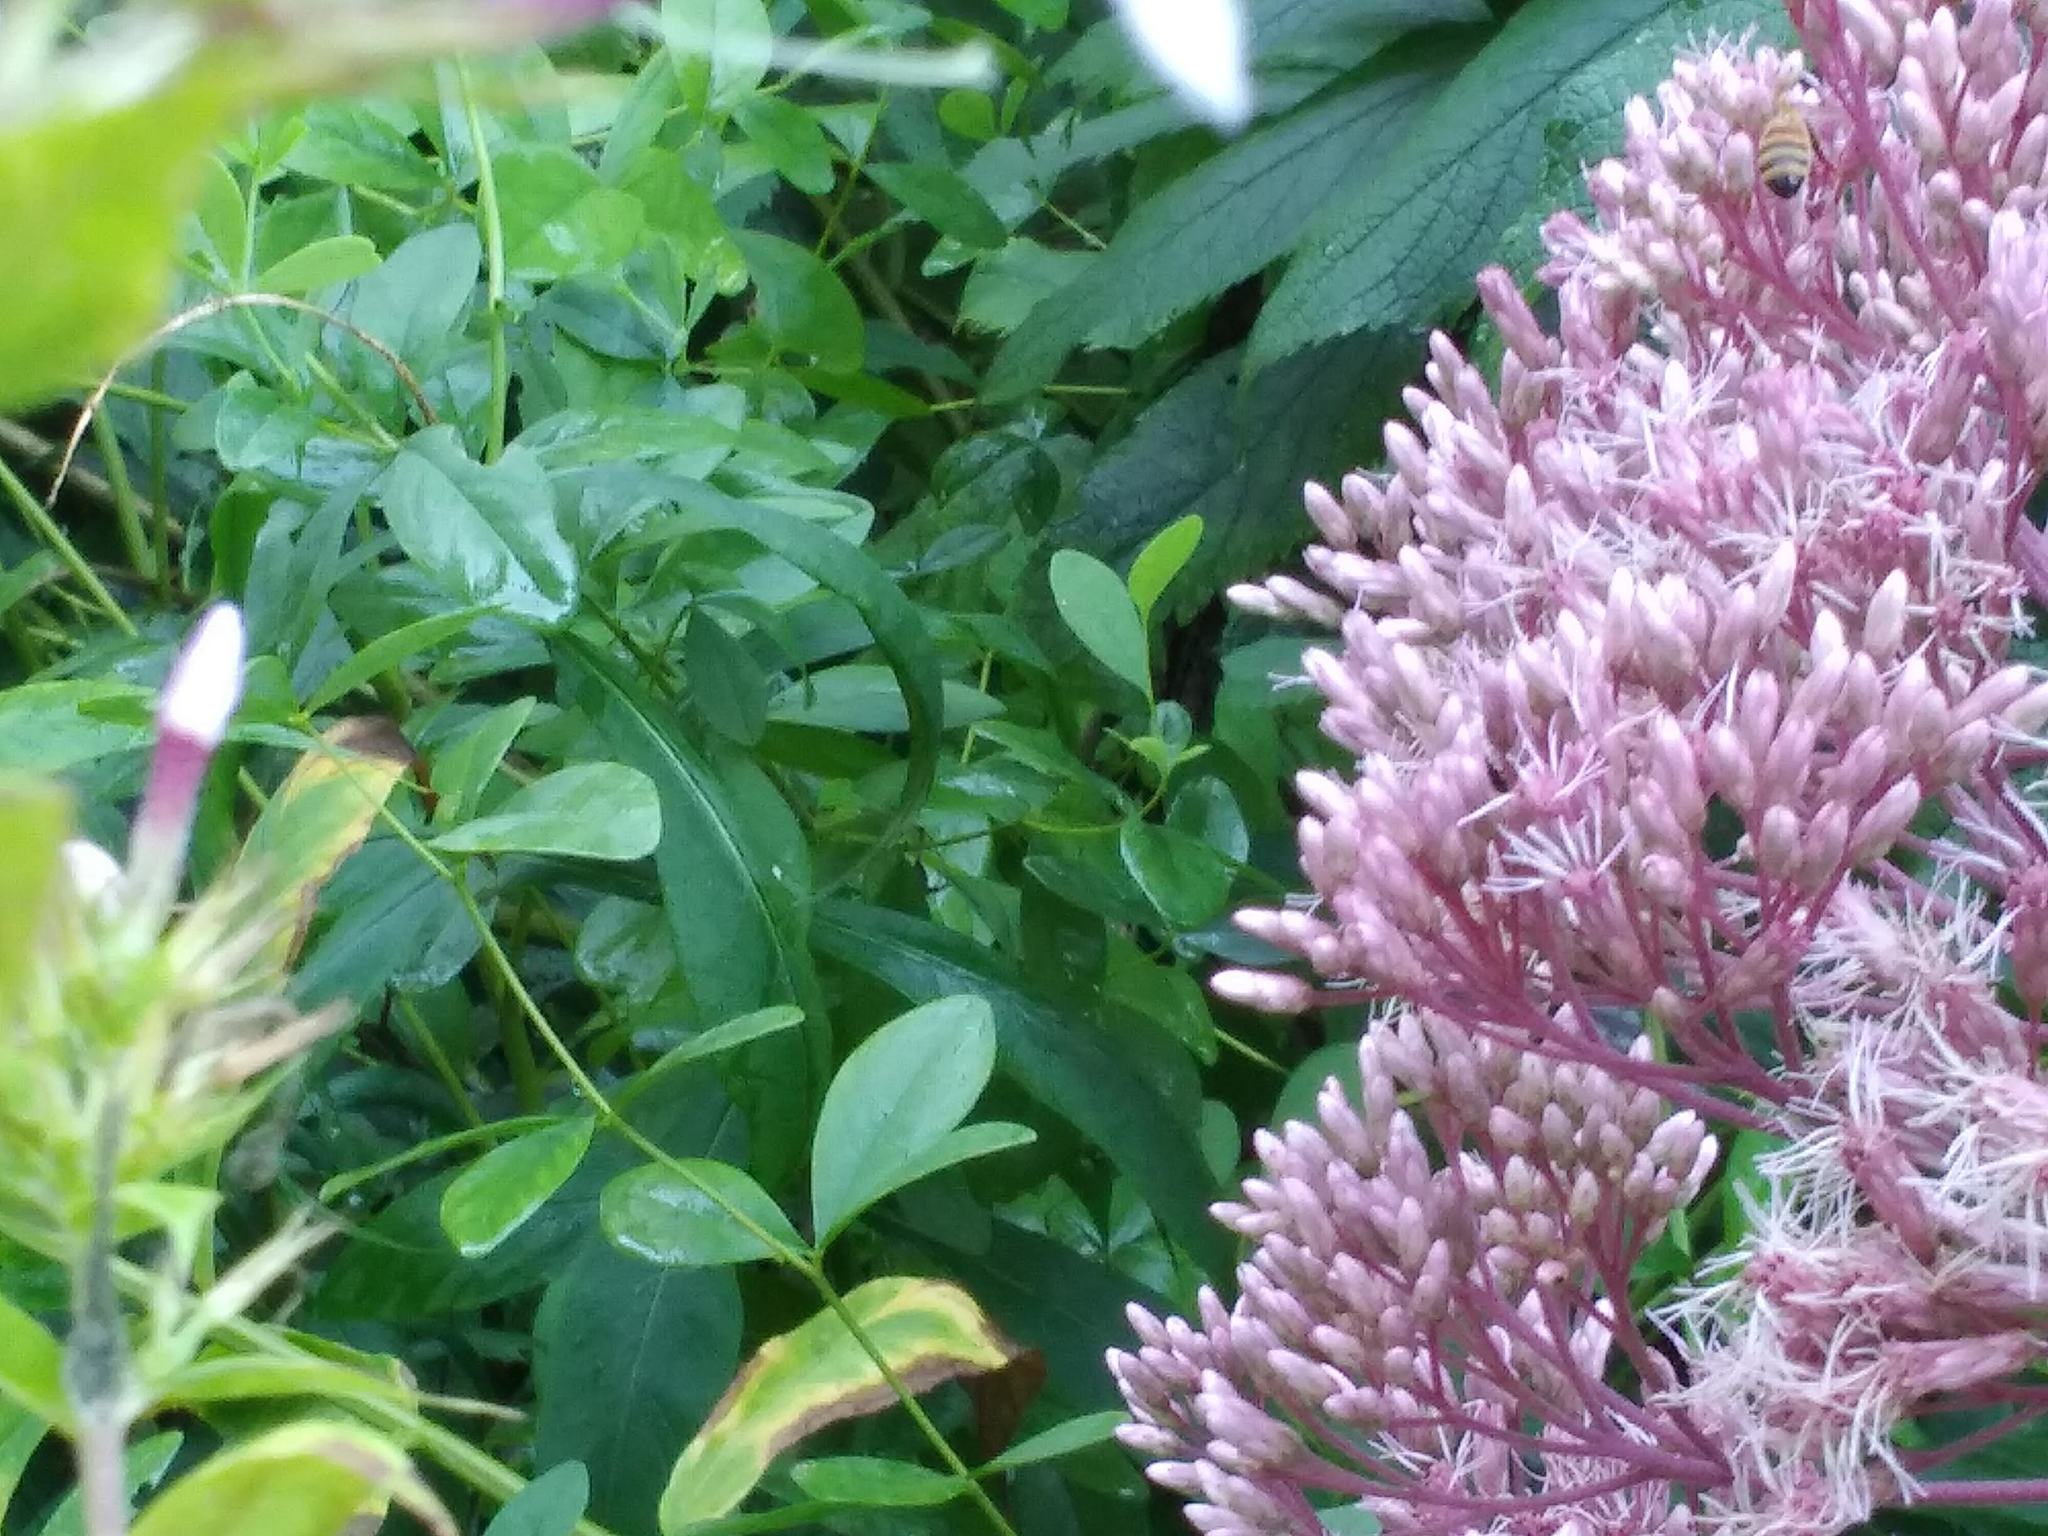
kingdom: Animalia
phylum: Arthropoda
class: Insecta
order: Hymenoptera
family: Apidae
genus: Apis
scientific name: Apis mellifera
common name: Honey bee
